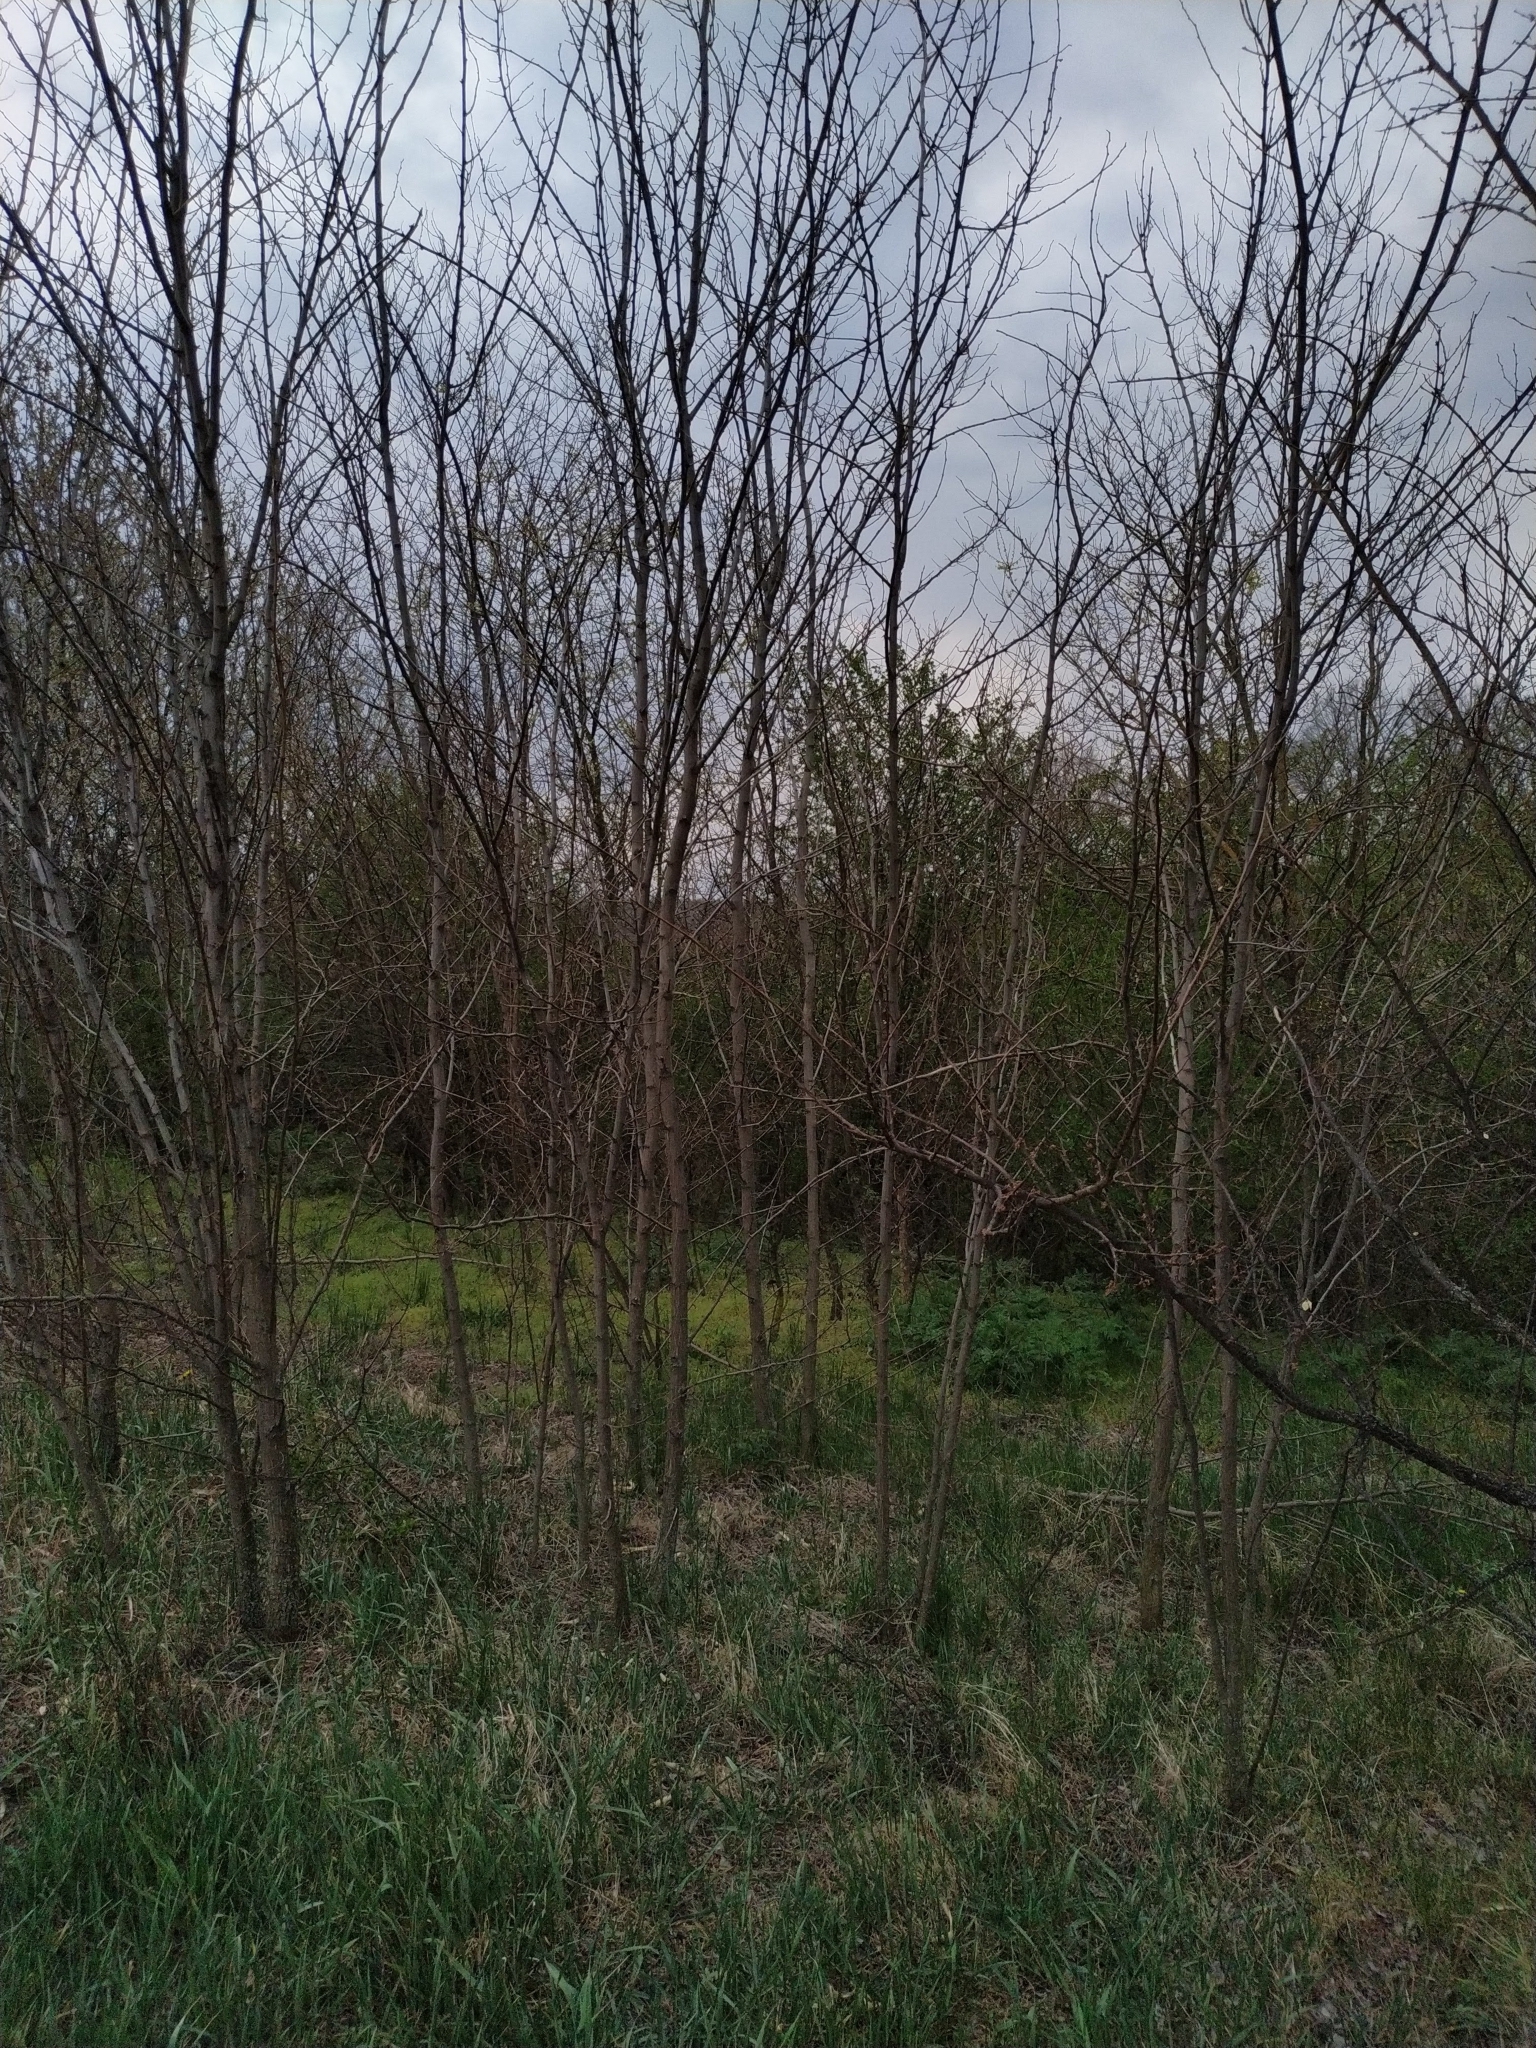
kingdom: Plantae
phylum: Tracheophyta
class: Magnoliopsida
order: Fabales
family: Fabaceae
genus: Robinia
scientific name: Robinia pseudoacacia
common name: Black locust
